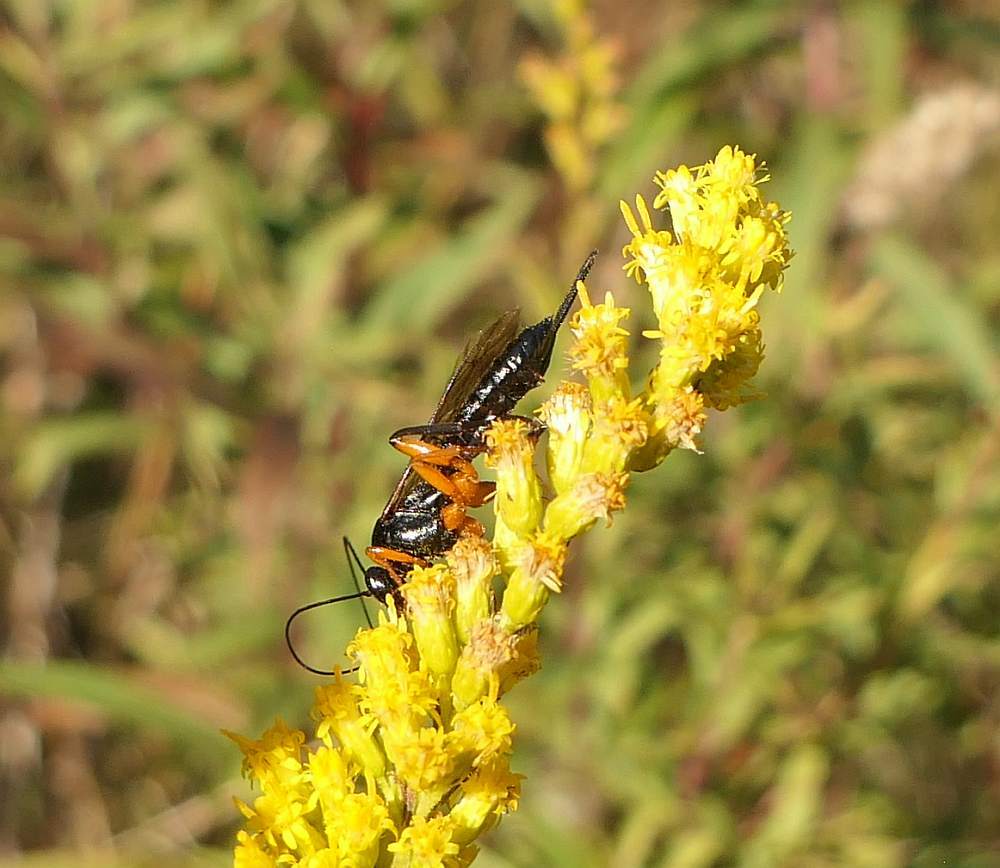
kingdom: Animalia
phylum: Arthropoda
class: Insecta
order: Hymenoptera
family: Ichneumonidae
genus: Pimpla
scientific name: Pimpla pedalis
